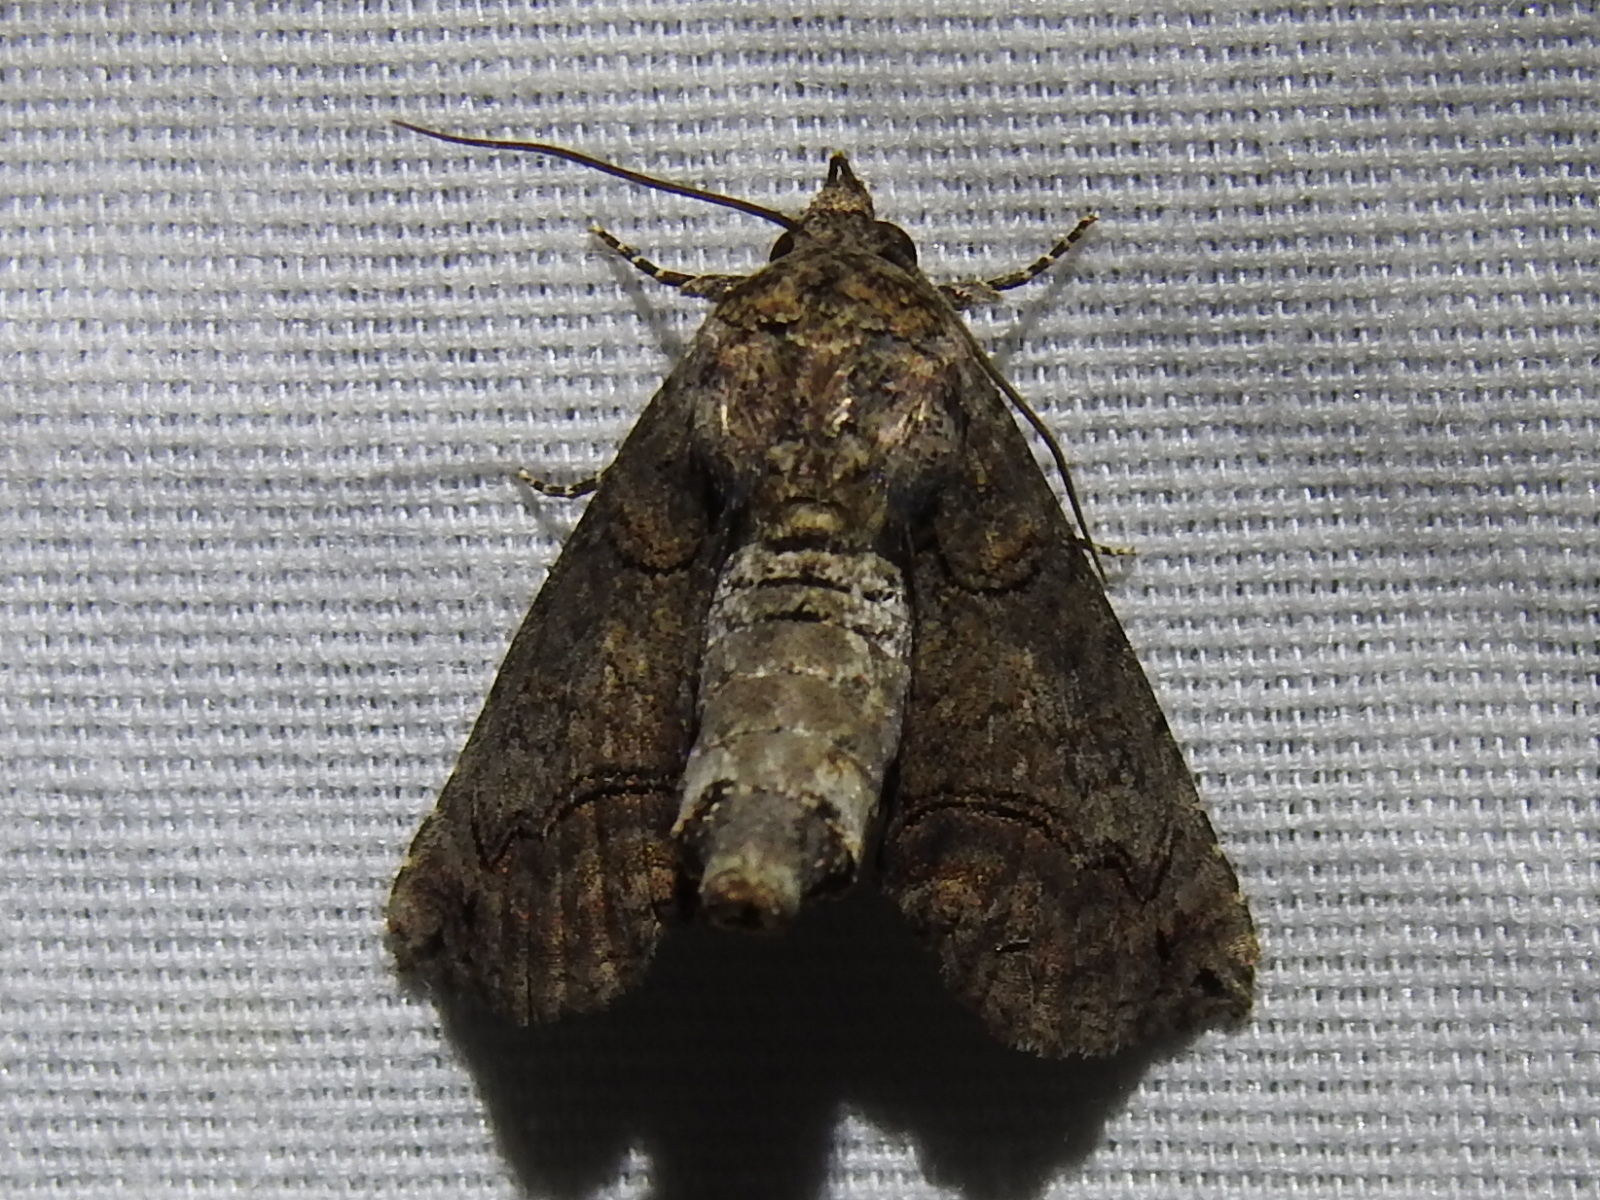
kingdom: Animalia
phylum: Arthropoda
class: Insecta
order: Lepidoptera
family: Euteliidae
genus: Paectes
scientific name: Paectes abrostoloides
